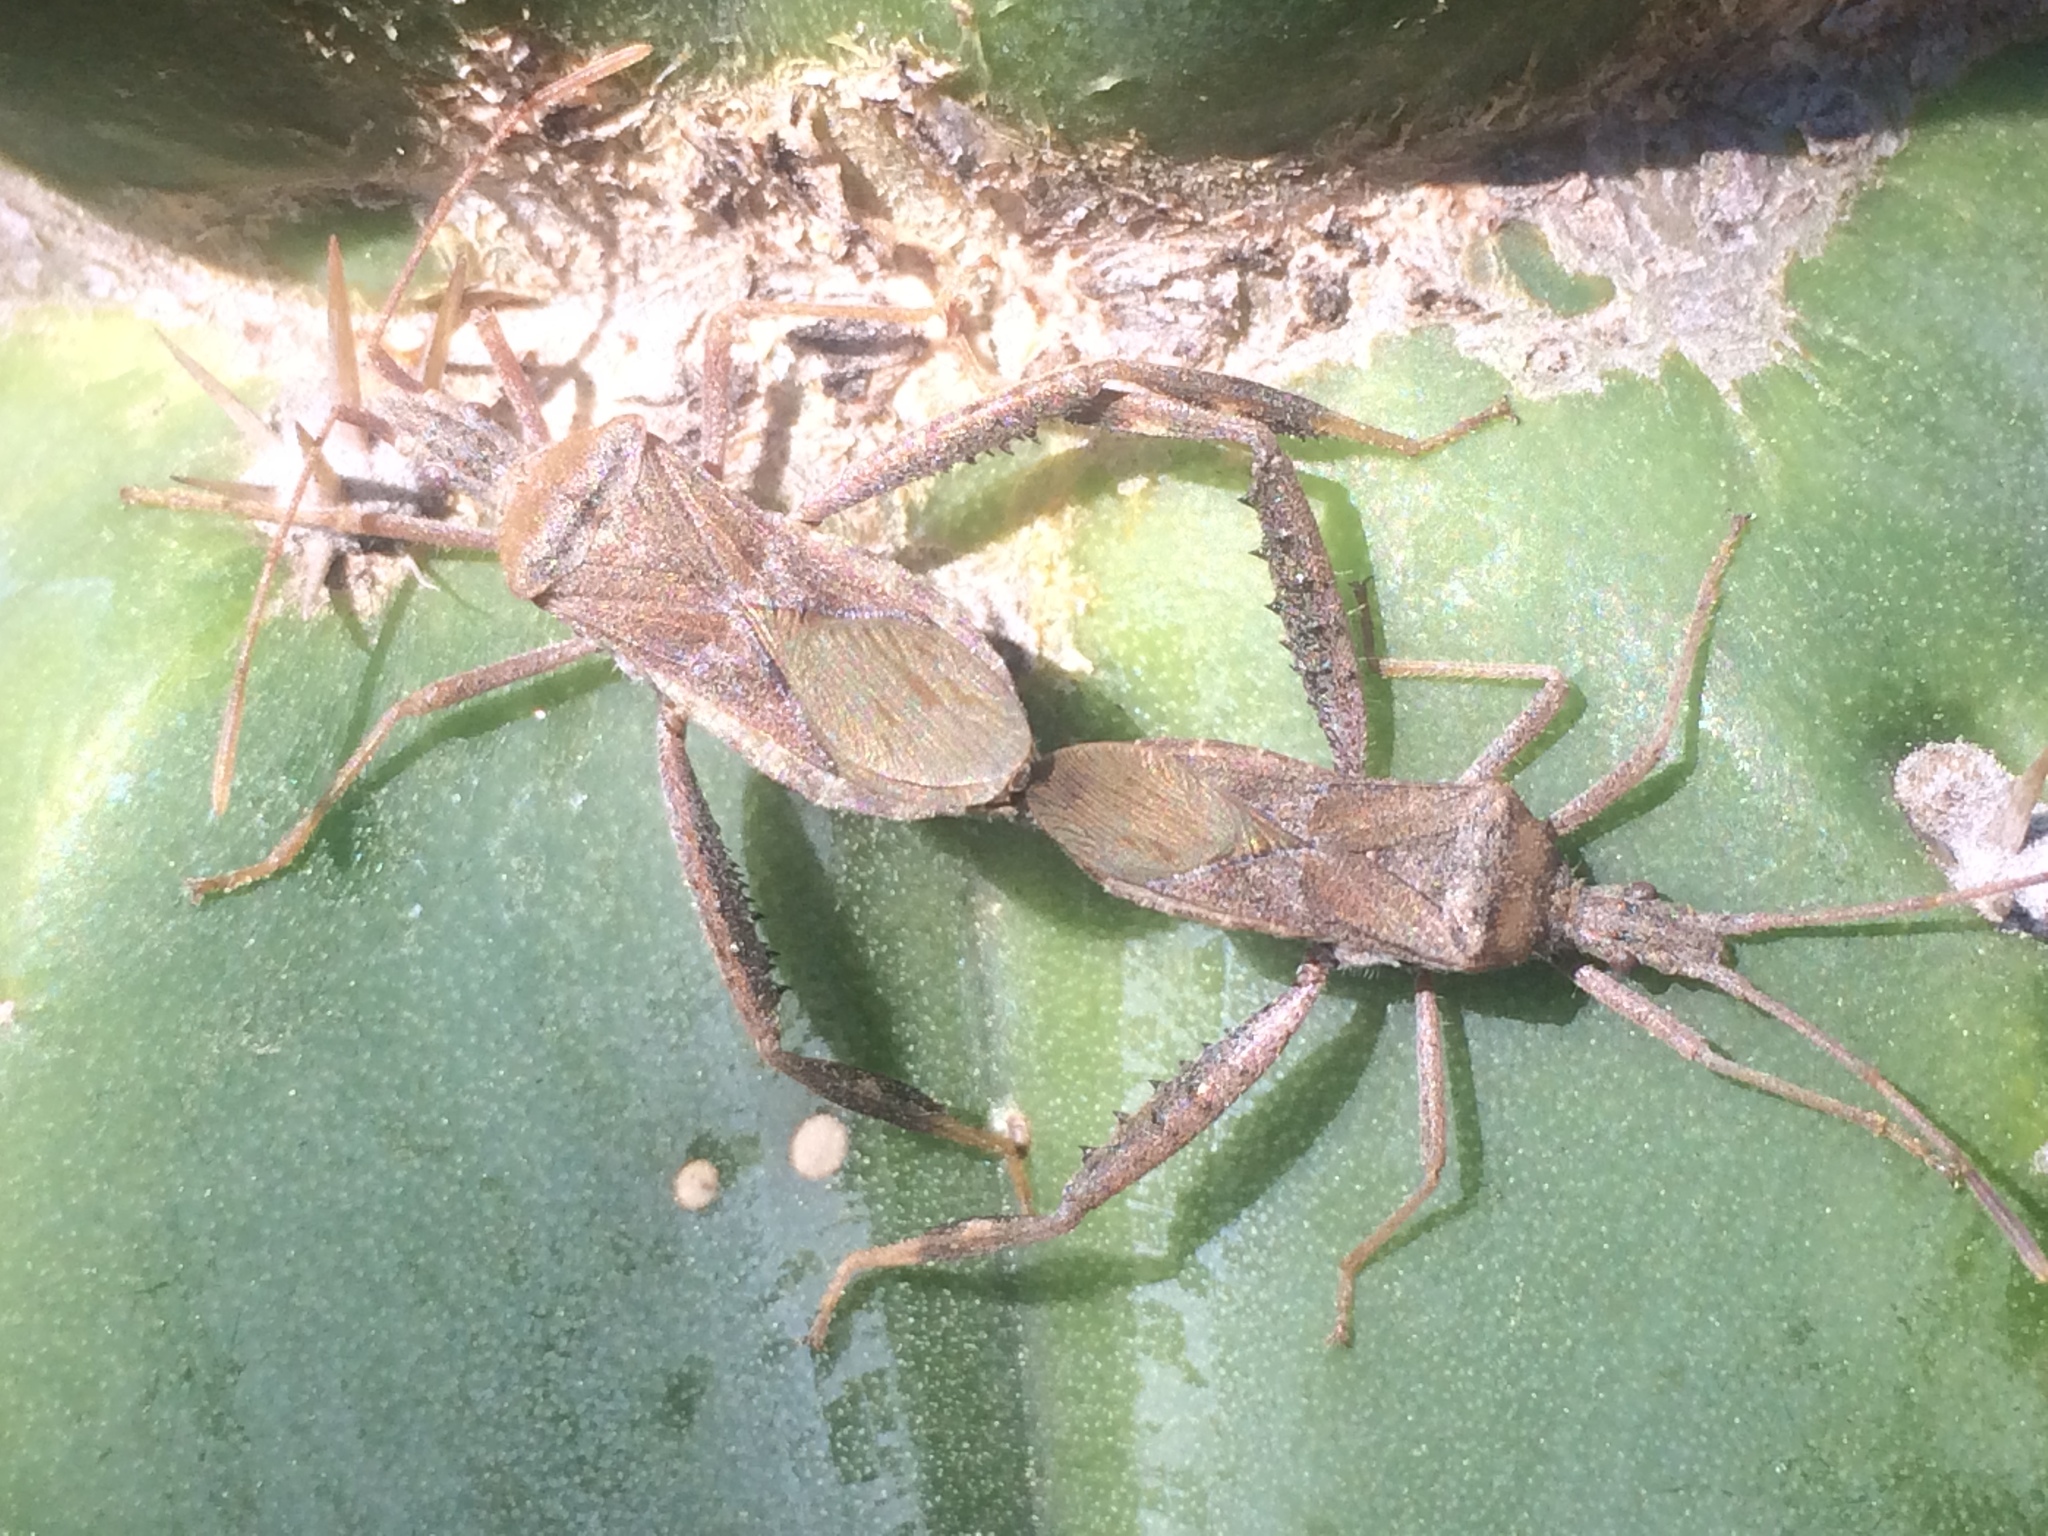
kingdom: Animalia
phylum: Arthropoda
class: Insecta
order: Hemiptera
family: Coreidae
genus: Narnia
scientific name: Narnia femorata
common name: Leaf-footed cactus bug
